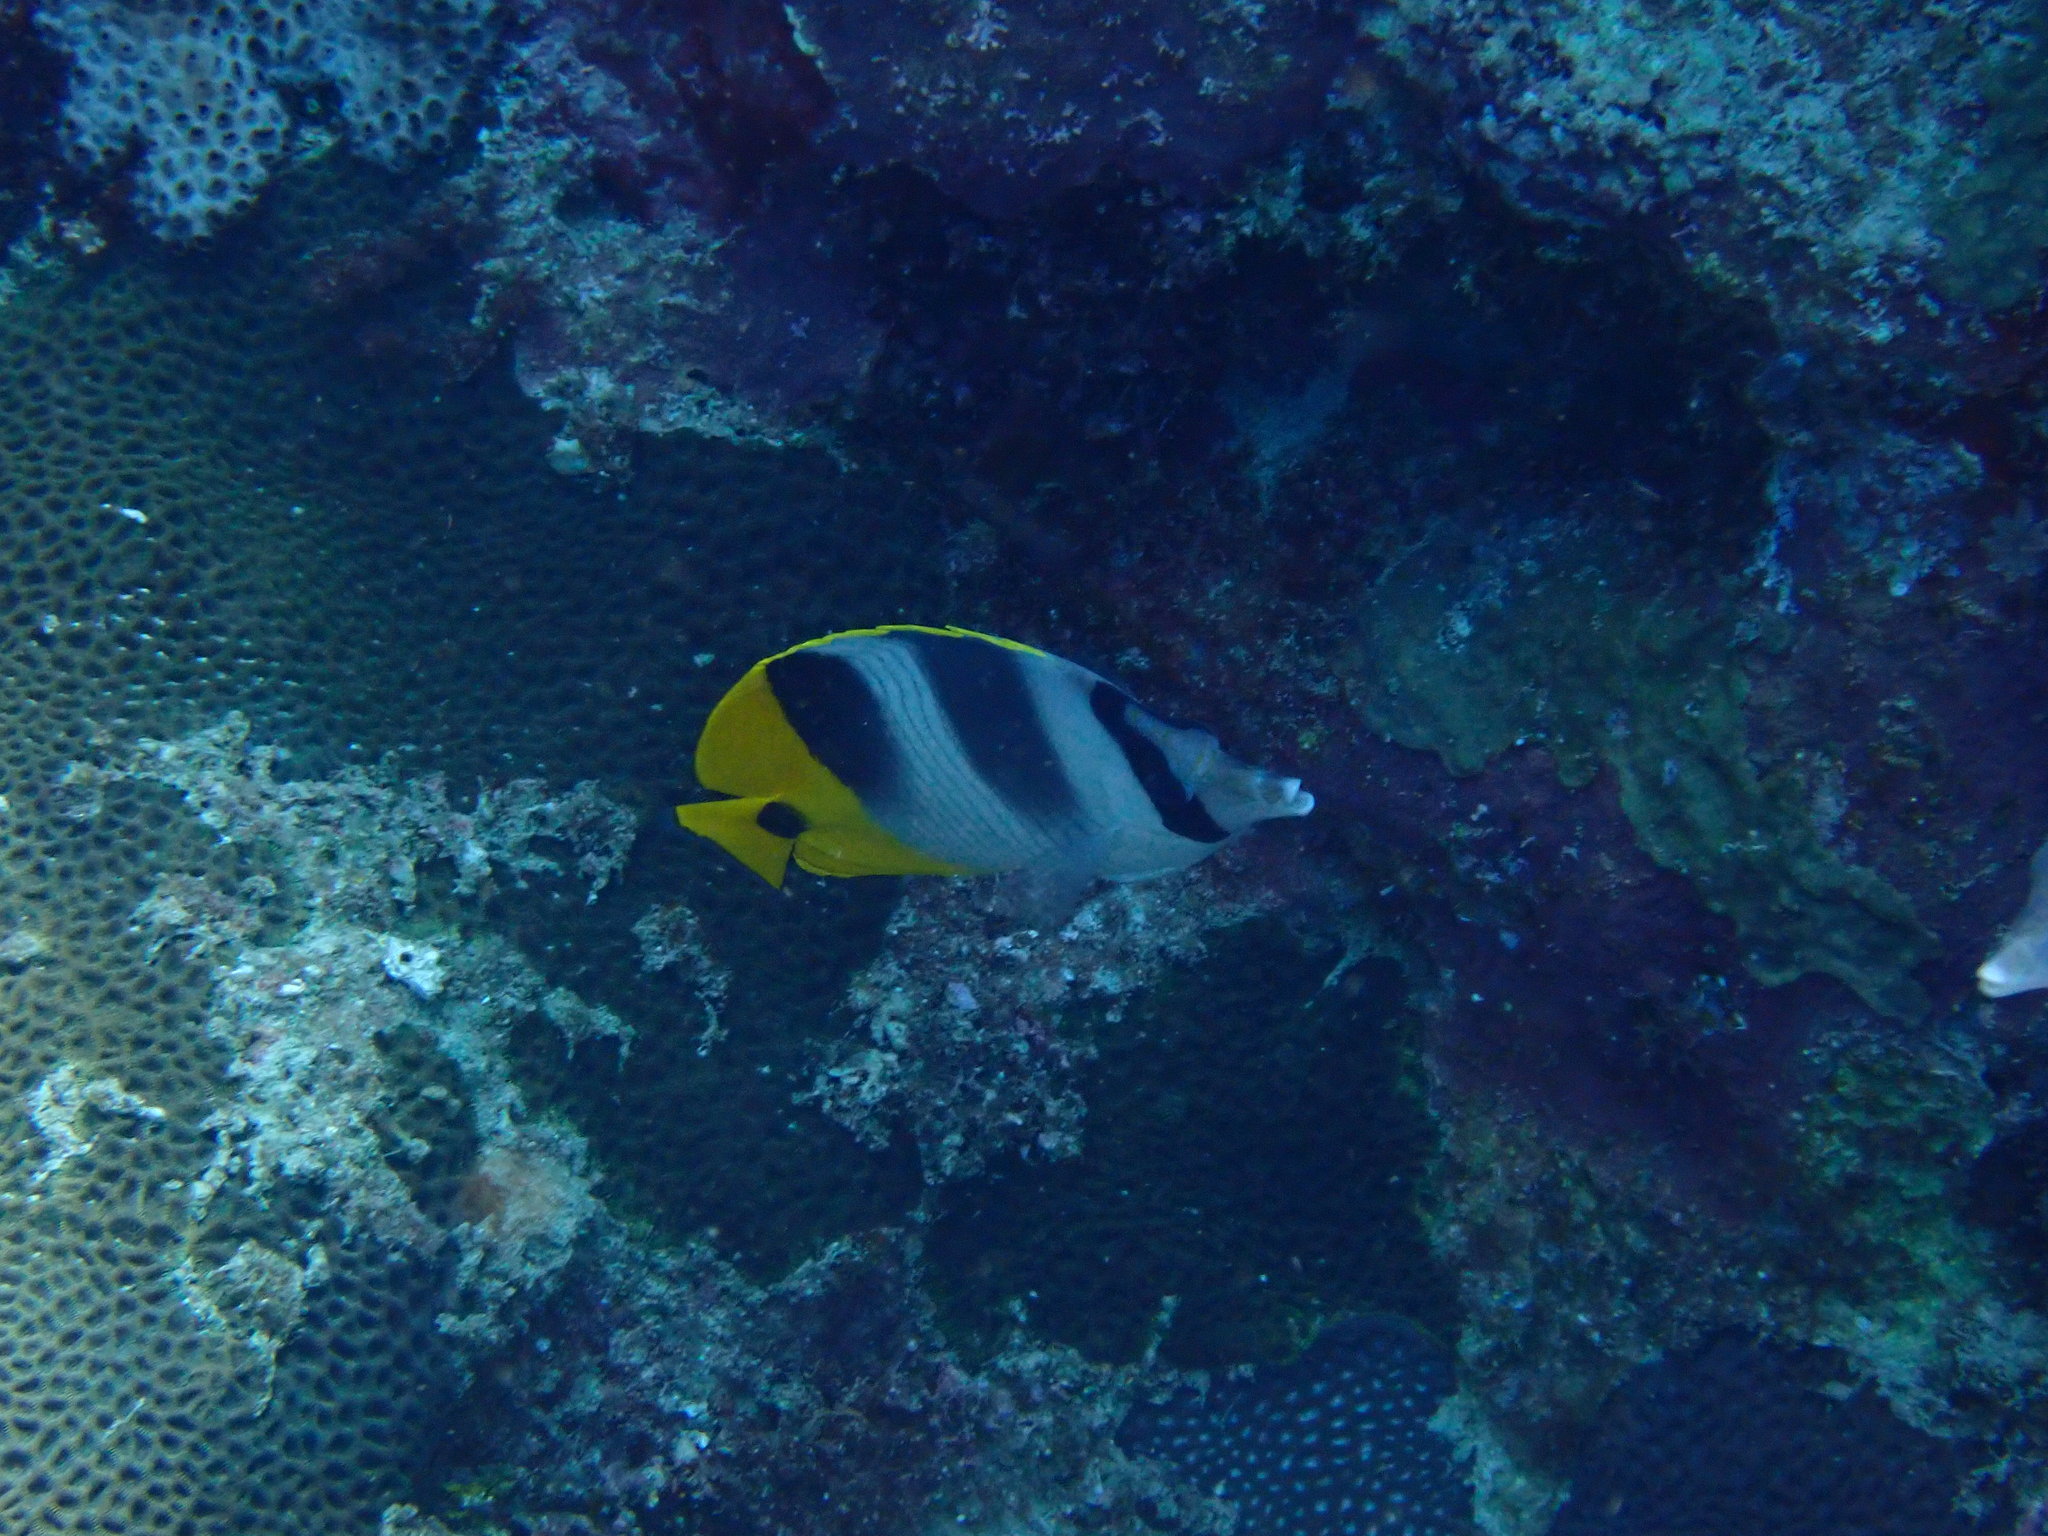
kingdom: Animalia
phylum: Chordata
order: Perciformes
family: Chaetodontidae
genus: Chaetodon
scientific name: Chaetodon ulietensis
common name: Pacific double-saddle butterflyfish
